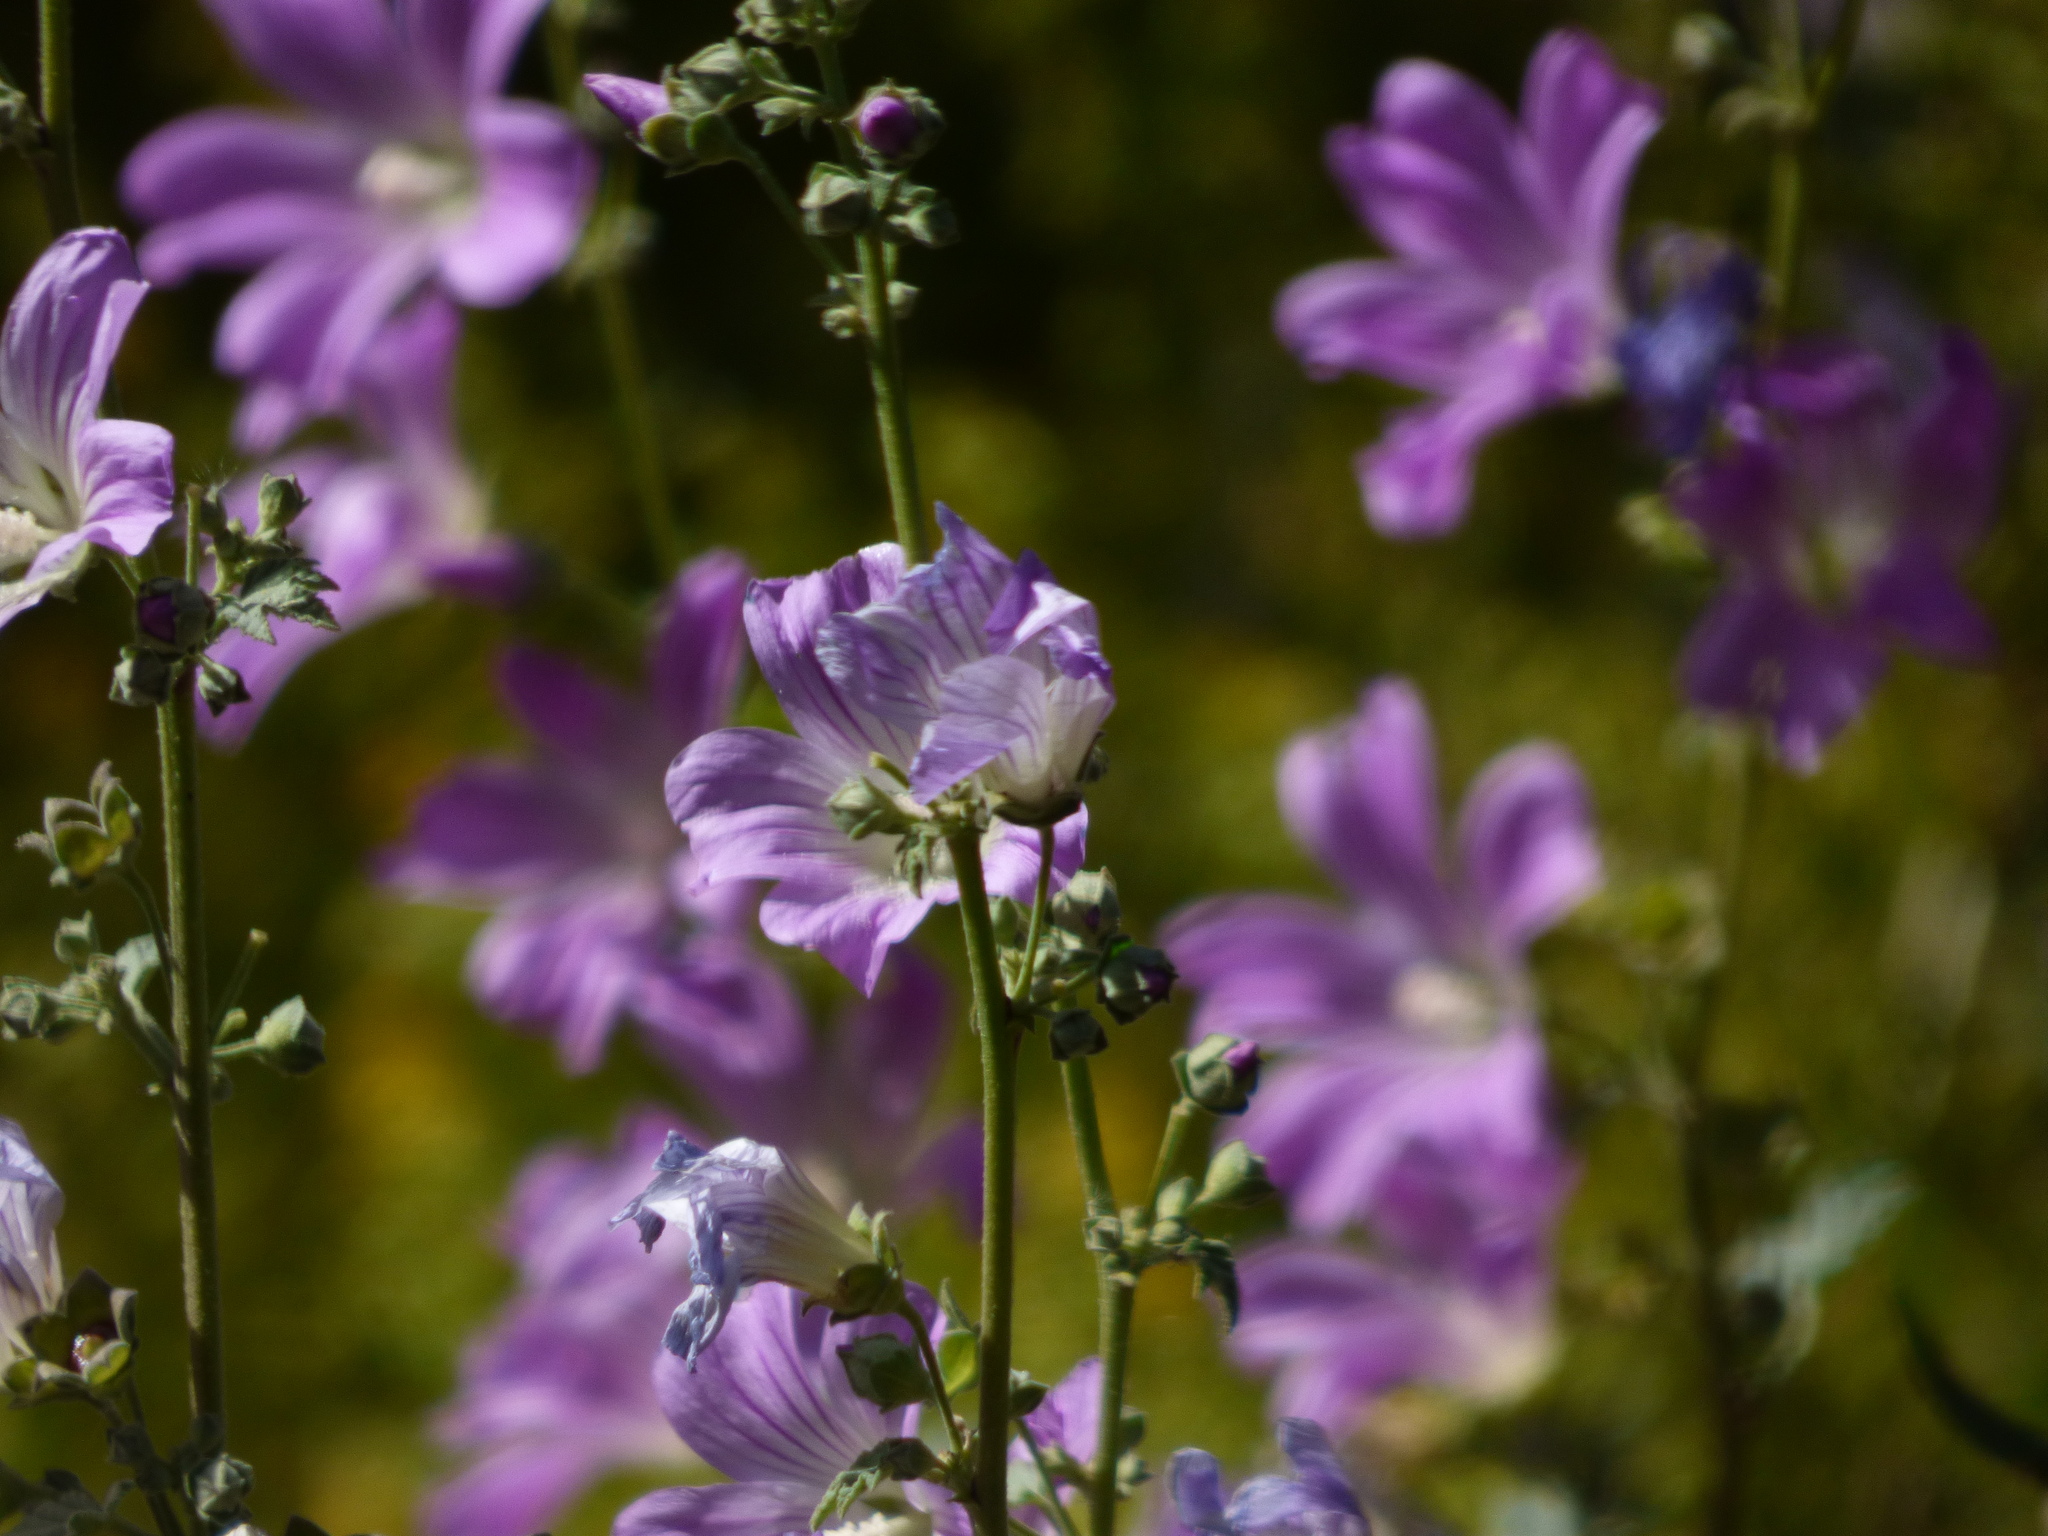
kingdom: Plantae
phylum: Tracheophyta
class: Magnoliopsida
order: Malvales
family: Malvaceae
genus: Malva
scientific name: Malva weinmanniana
